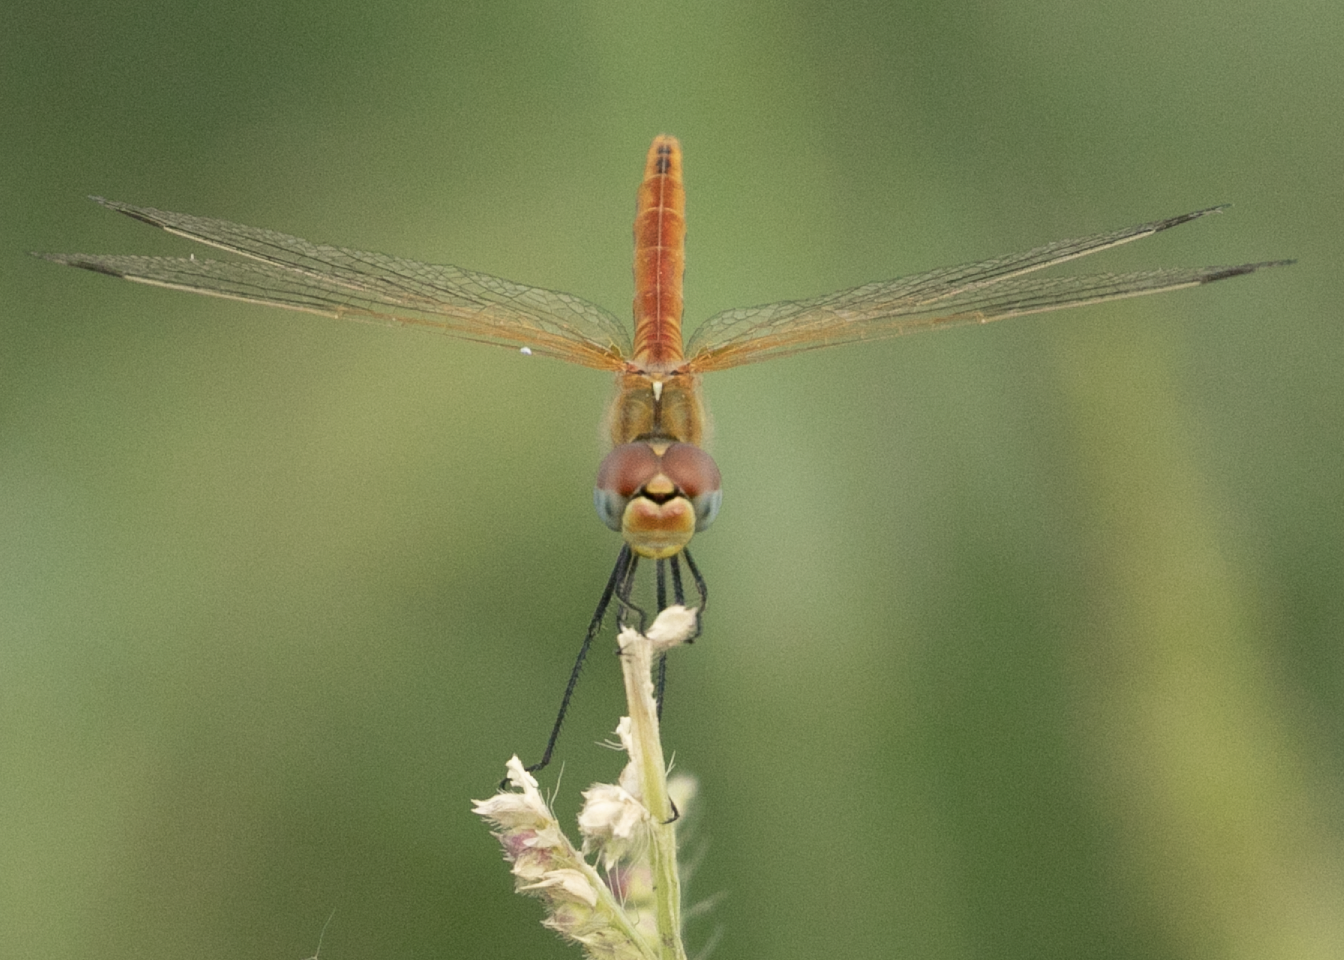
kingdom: Animalia
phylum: Arthropoda
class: Insecta
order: Odonata
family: Libellulidae
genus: Sympetrum
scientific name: Sympetrum fonscolombii
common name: Red-veined darter
